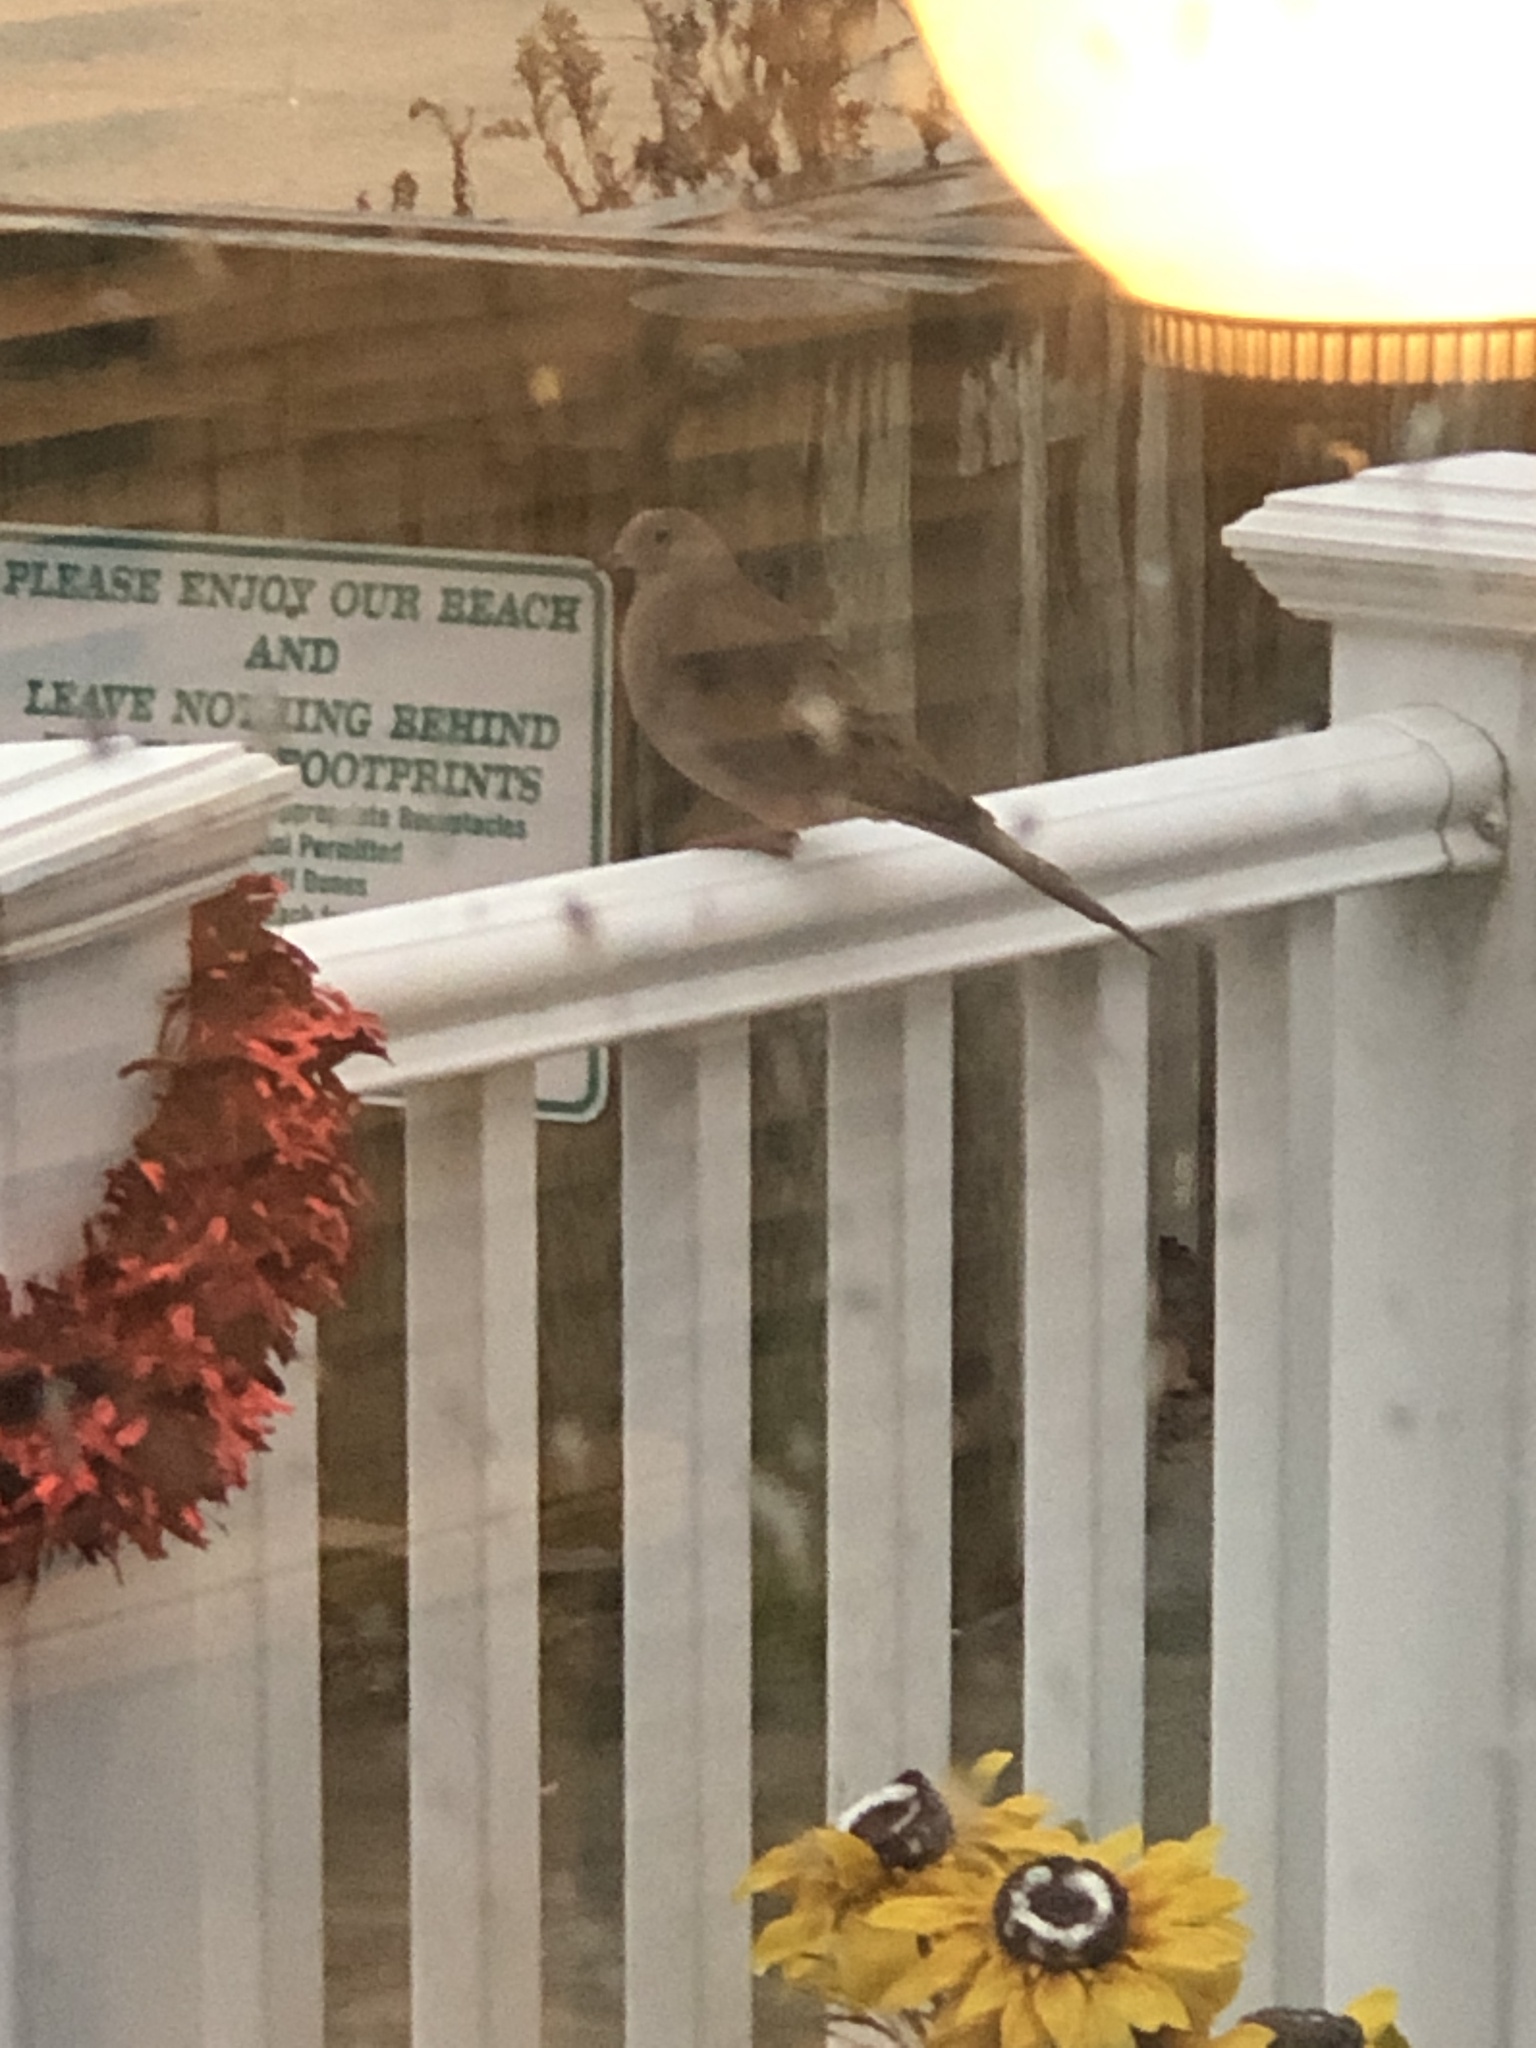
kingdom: Animalia
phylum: Chordata
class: Aves
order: Columbiformes
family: Columbidae
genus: Zenaida
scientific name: Zenaida macroura
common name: Mourning dove
